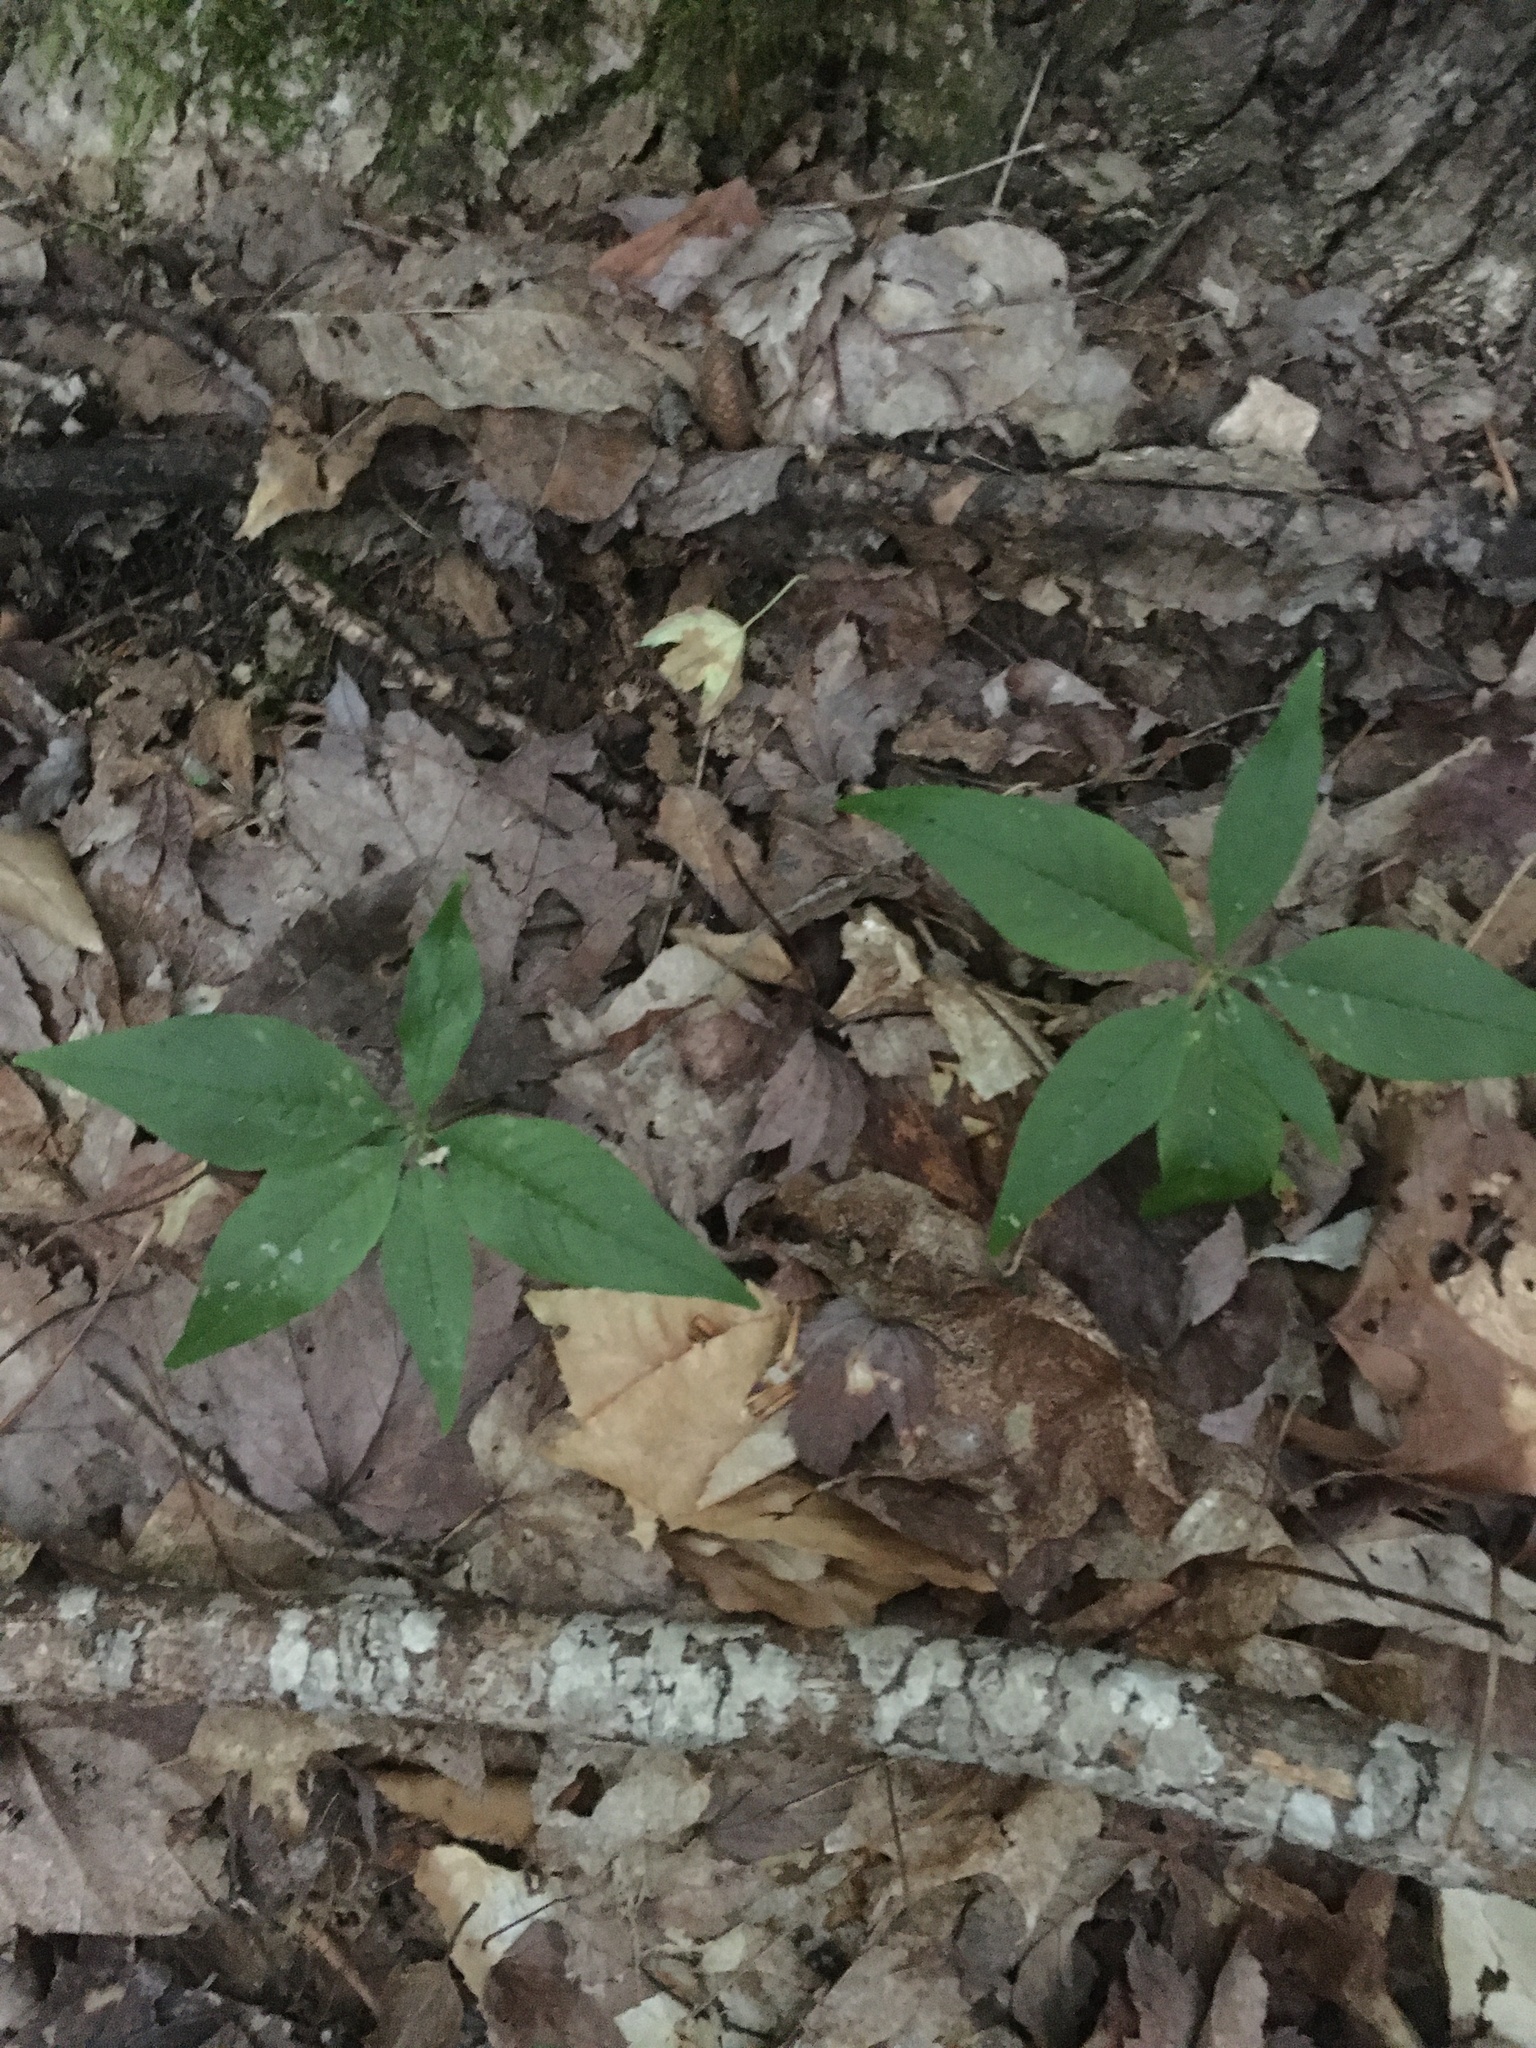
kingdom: Plantae
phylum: Tracheophyta
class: Magnoliopsida
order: Ericales
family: Primulaceae
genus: Lysimachia
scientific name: Lysimachia borealis
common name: American starflower
